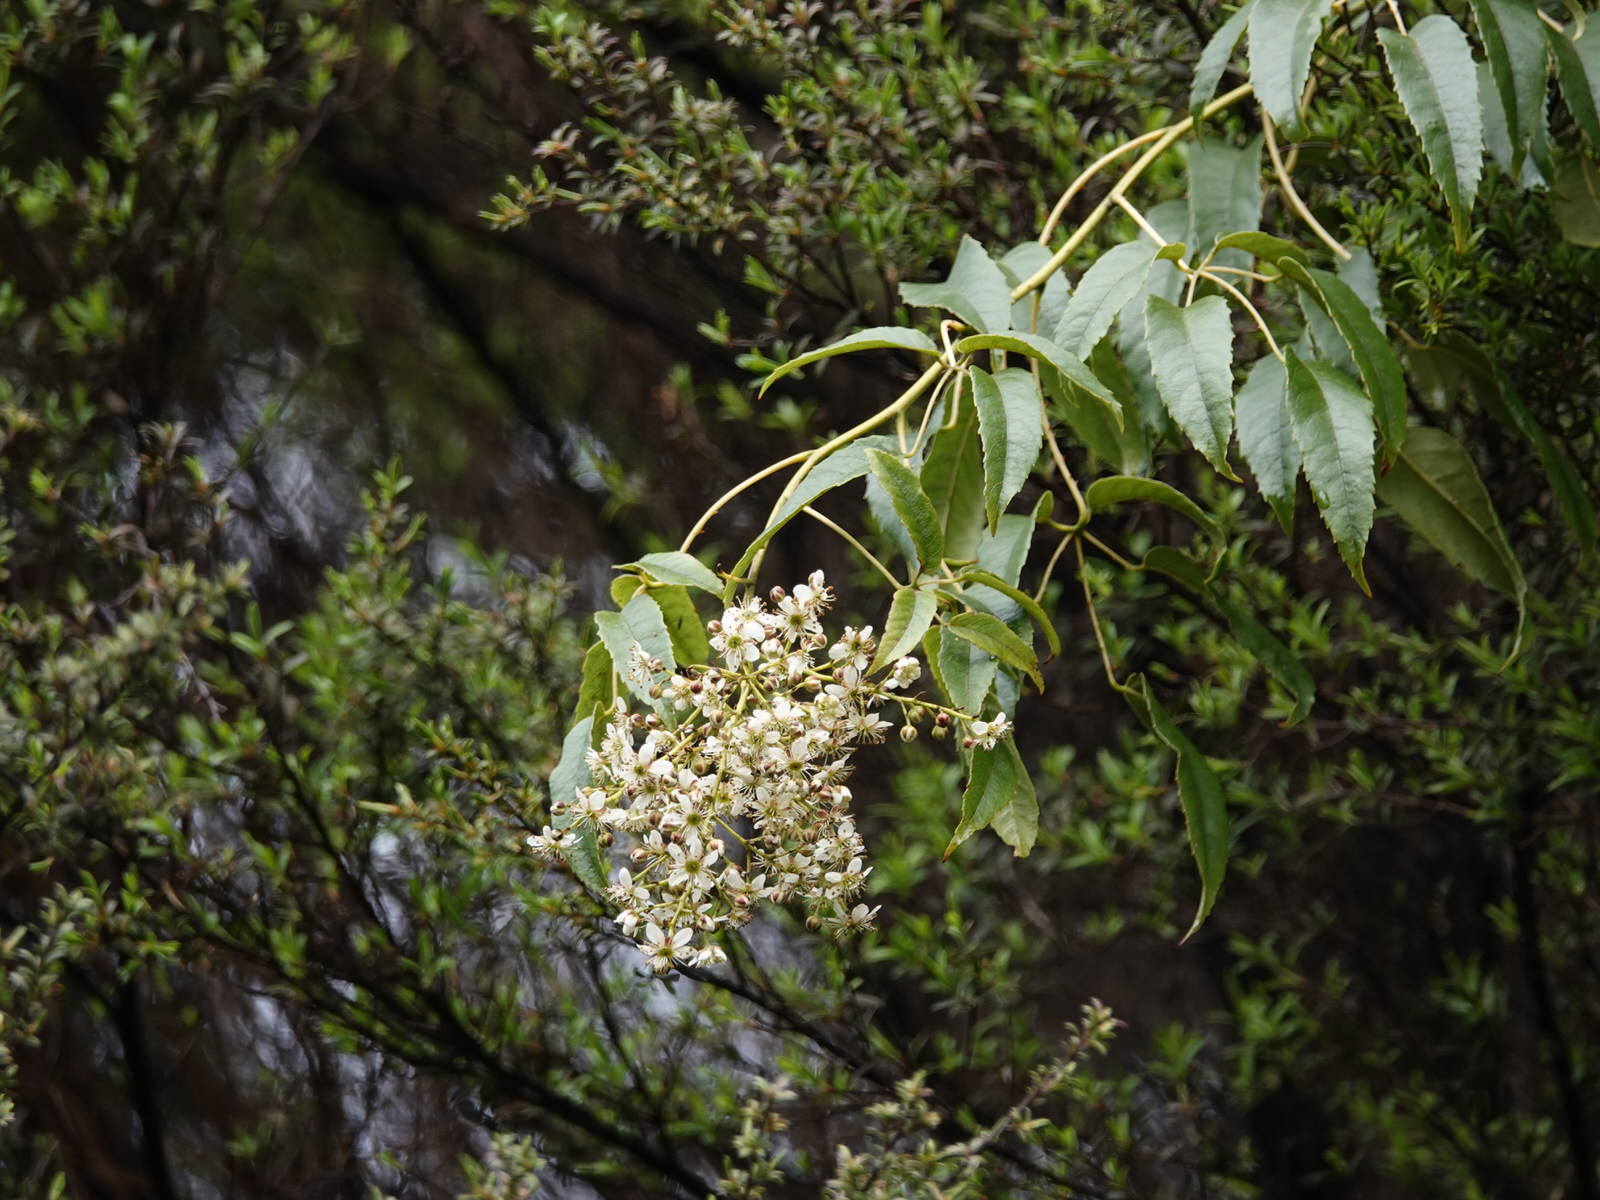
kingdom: Plantae
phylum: Tracheophyta
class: Magnoliopsida
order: Rosales
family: Rosaceae
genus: Rubus
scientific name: Rubus cissoides
